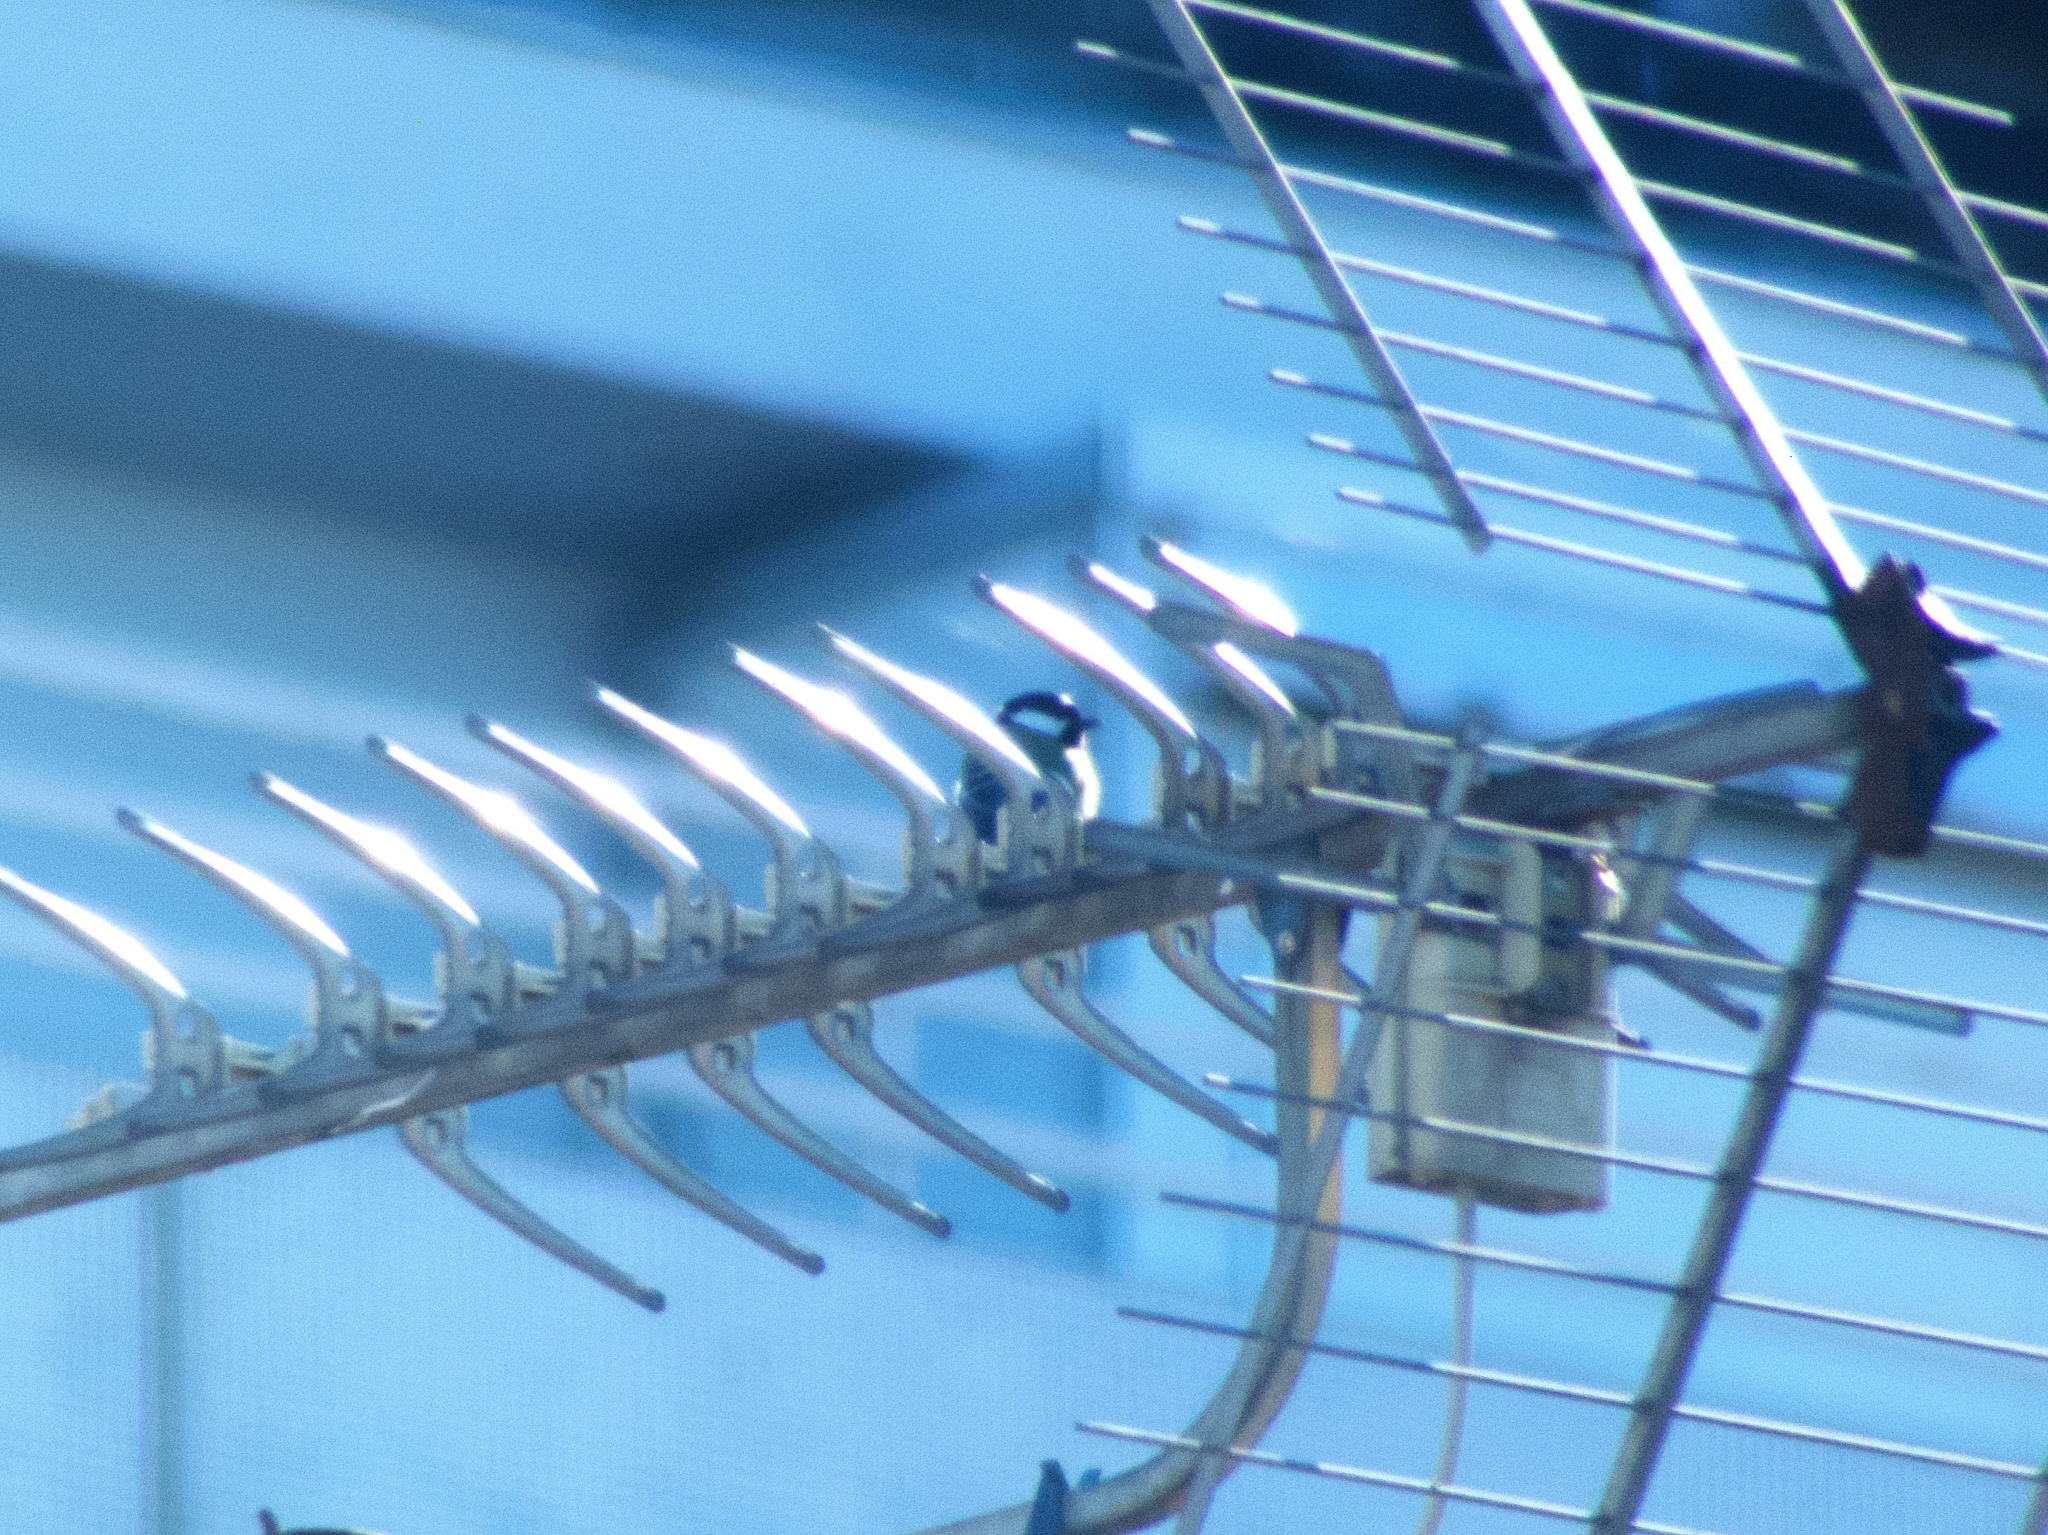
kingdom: Animalia
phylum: Chordata
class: Aves
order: Passeriformes
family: Paridae
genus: Parus
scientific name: Parus major
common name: Great tit
